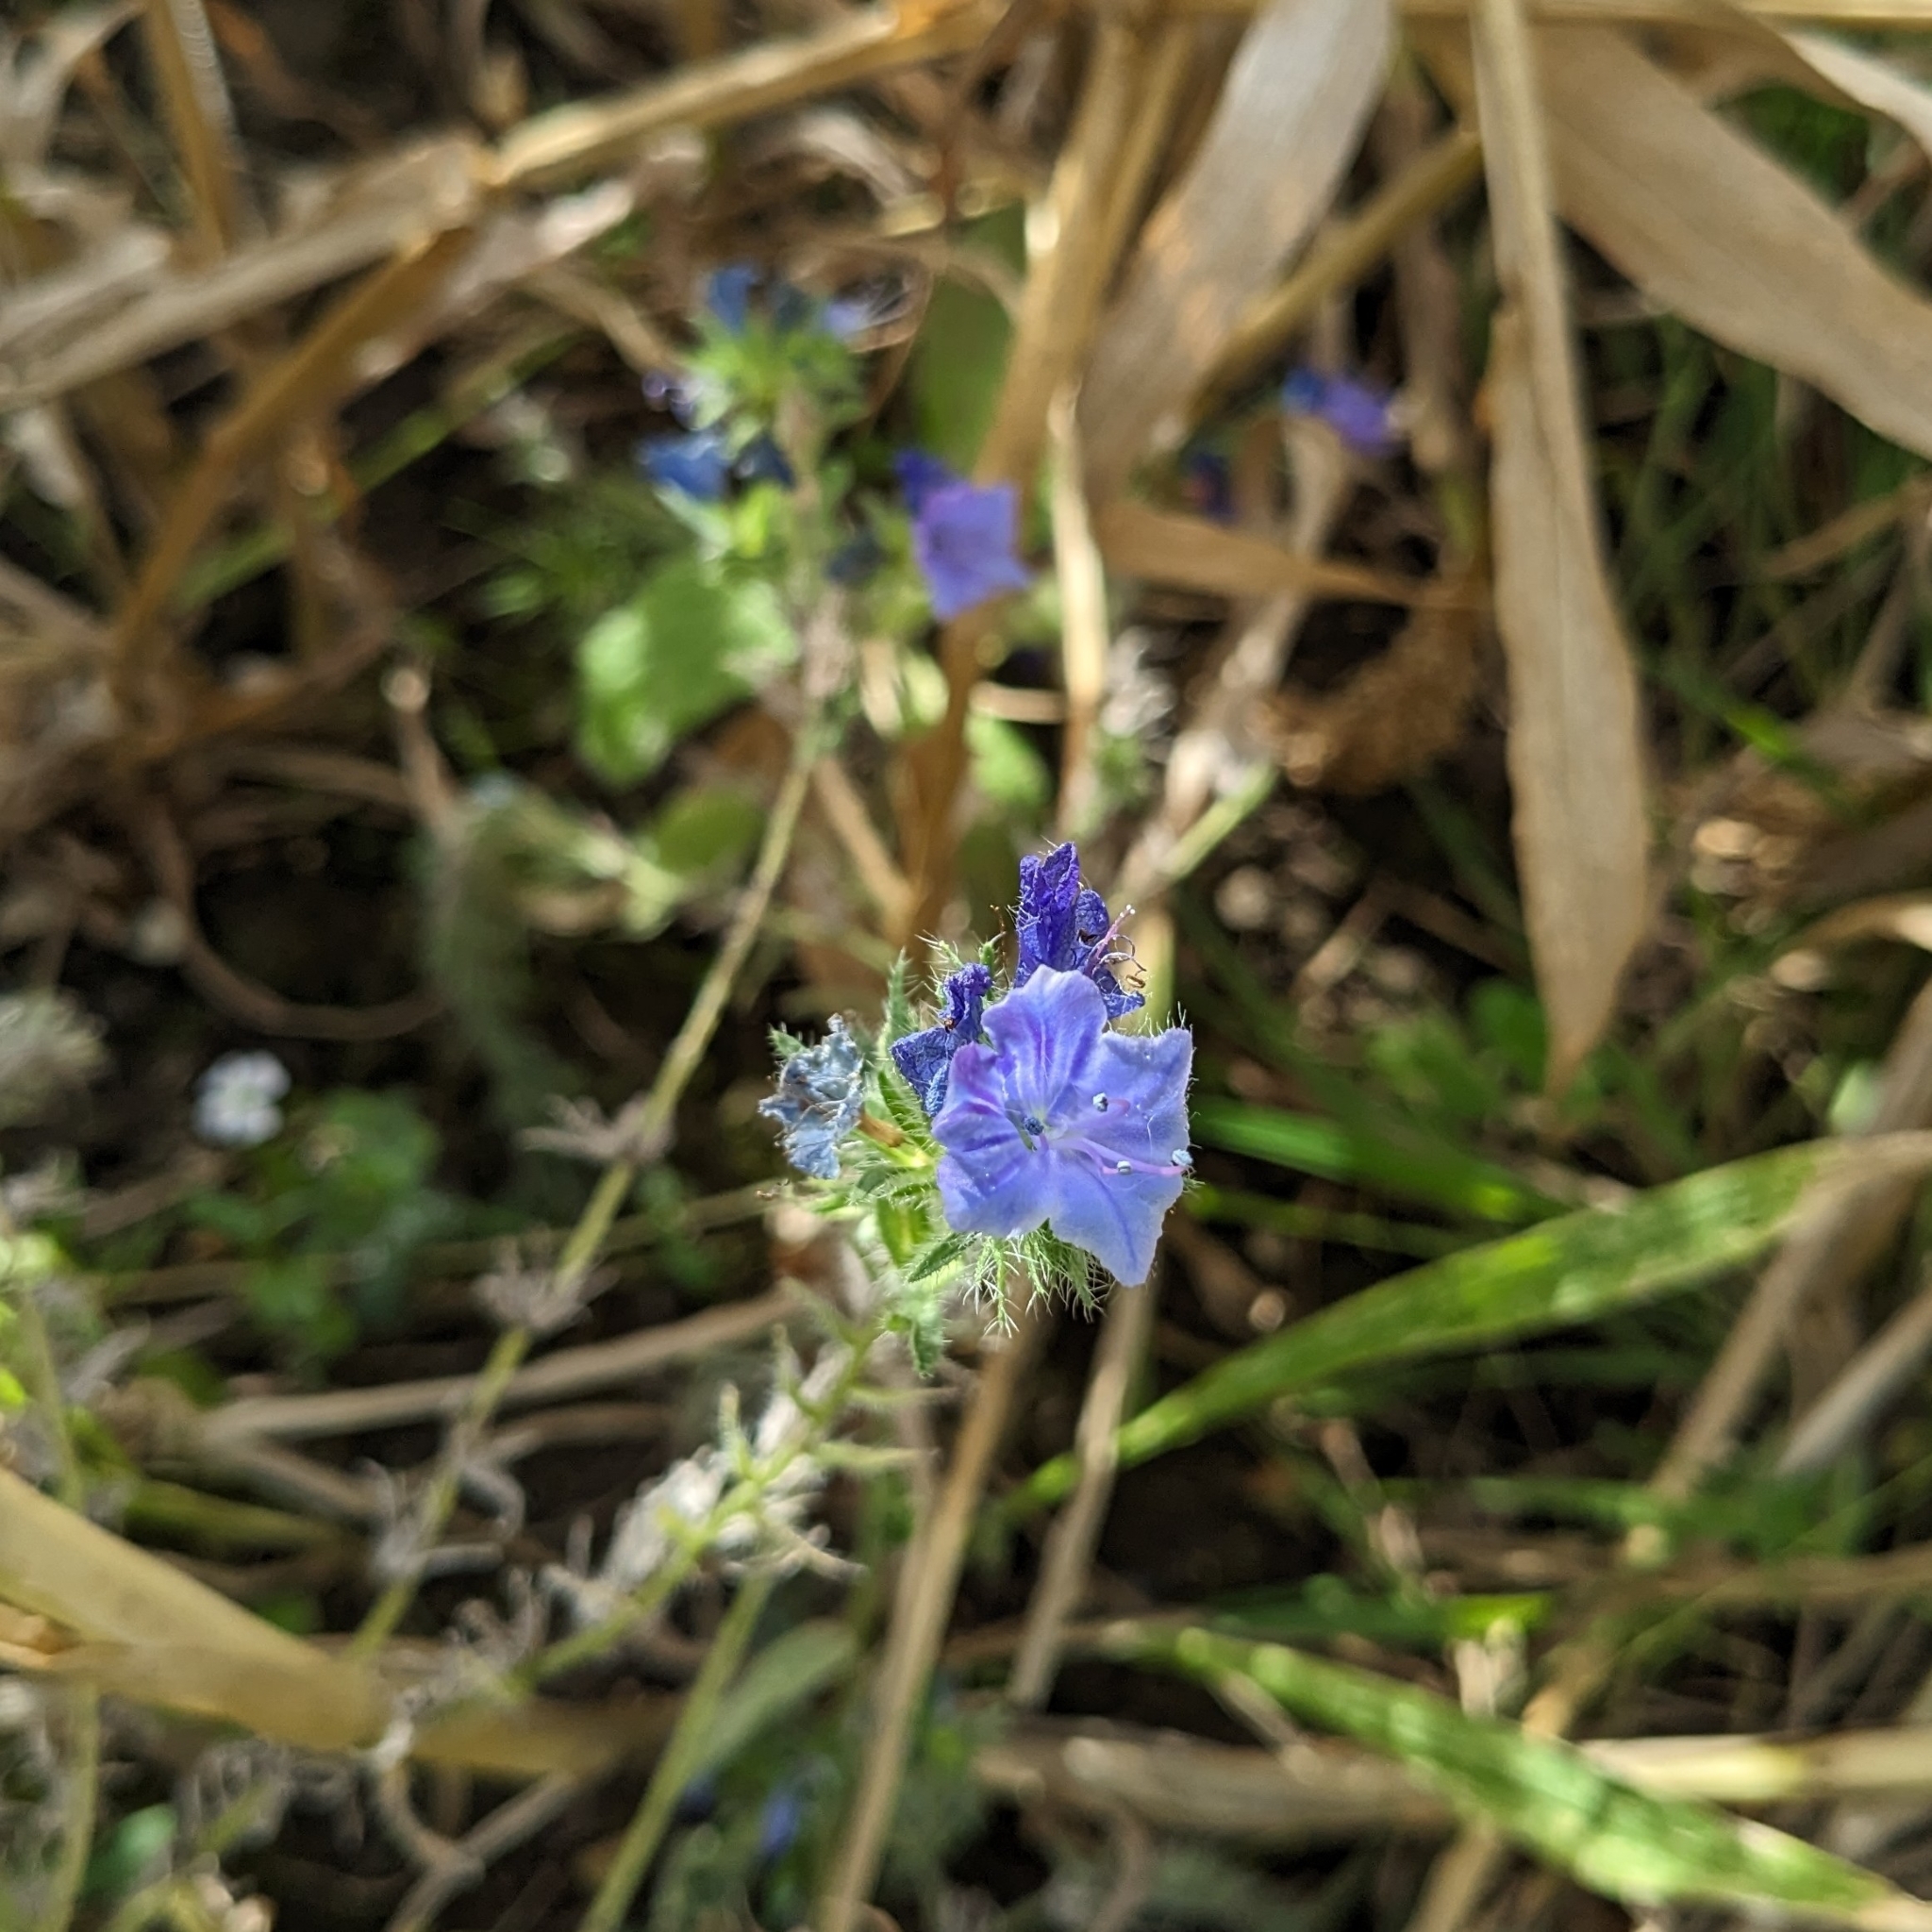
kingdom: Plantae
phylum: Tracheophyta
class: Magnoliopsida
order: Boraginales
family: Boraginaceae
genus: Echium
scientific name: Echium vulgare
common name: Common viper's bugloss
